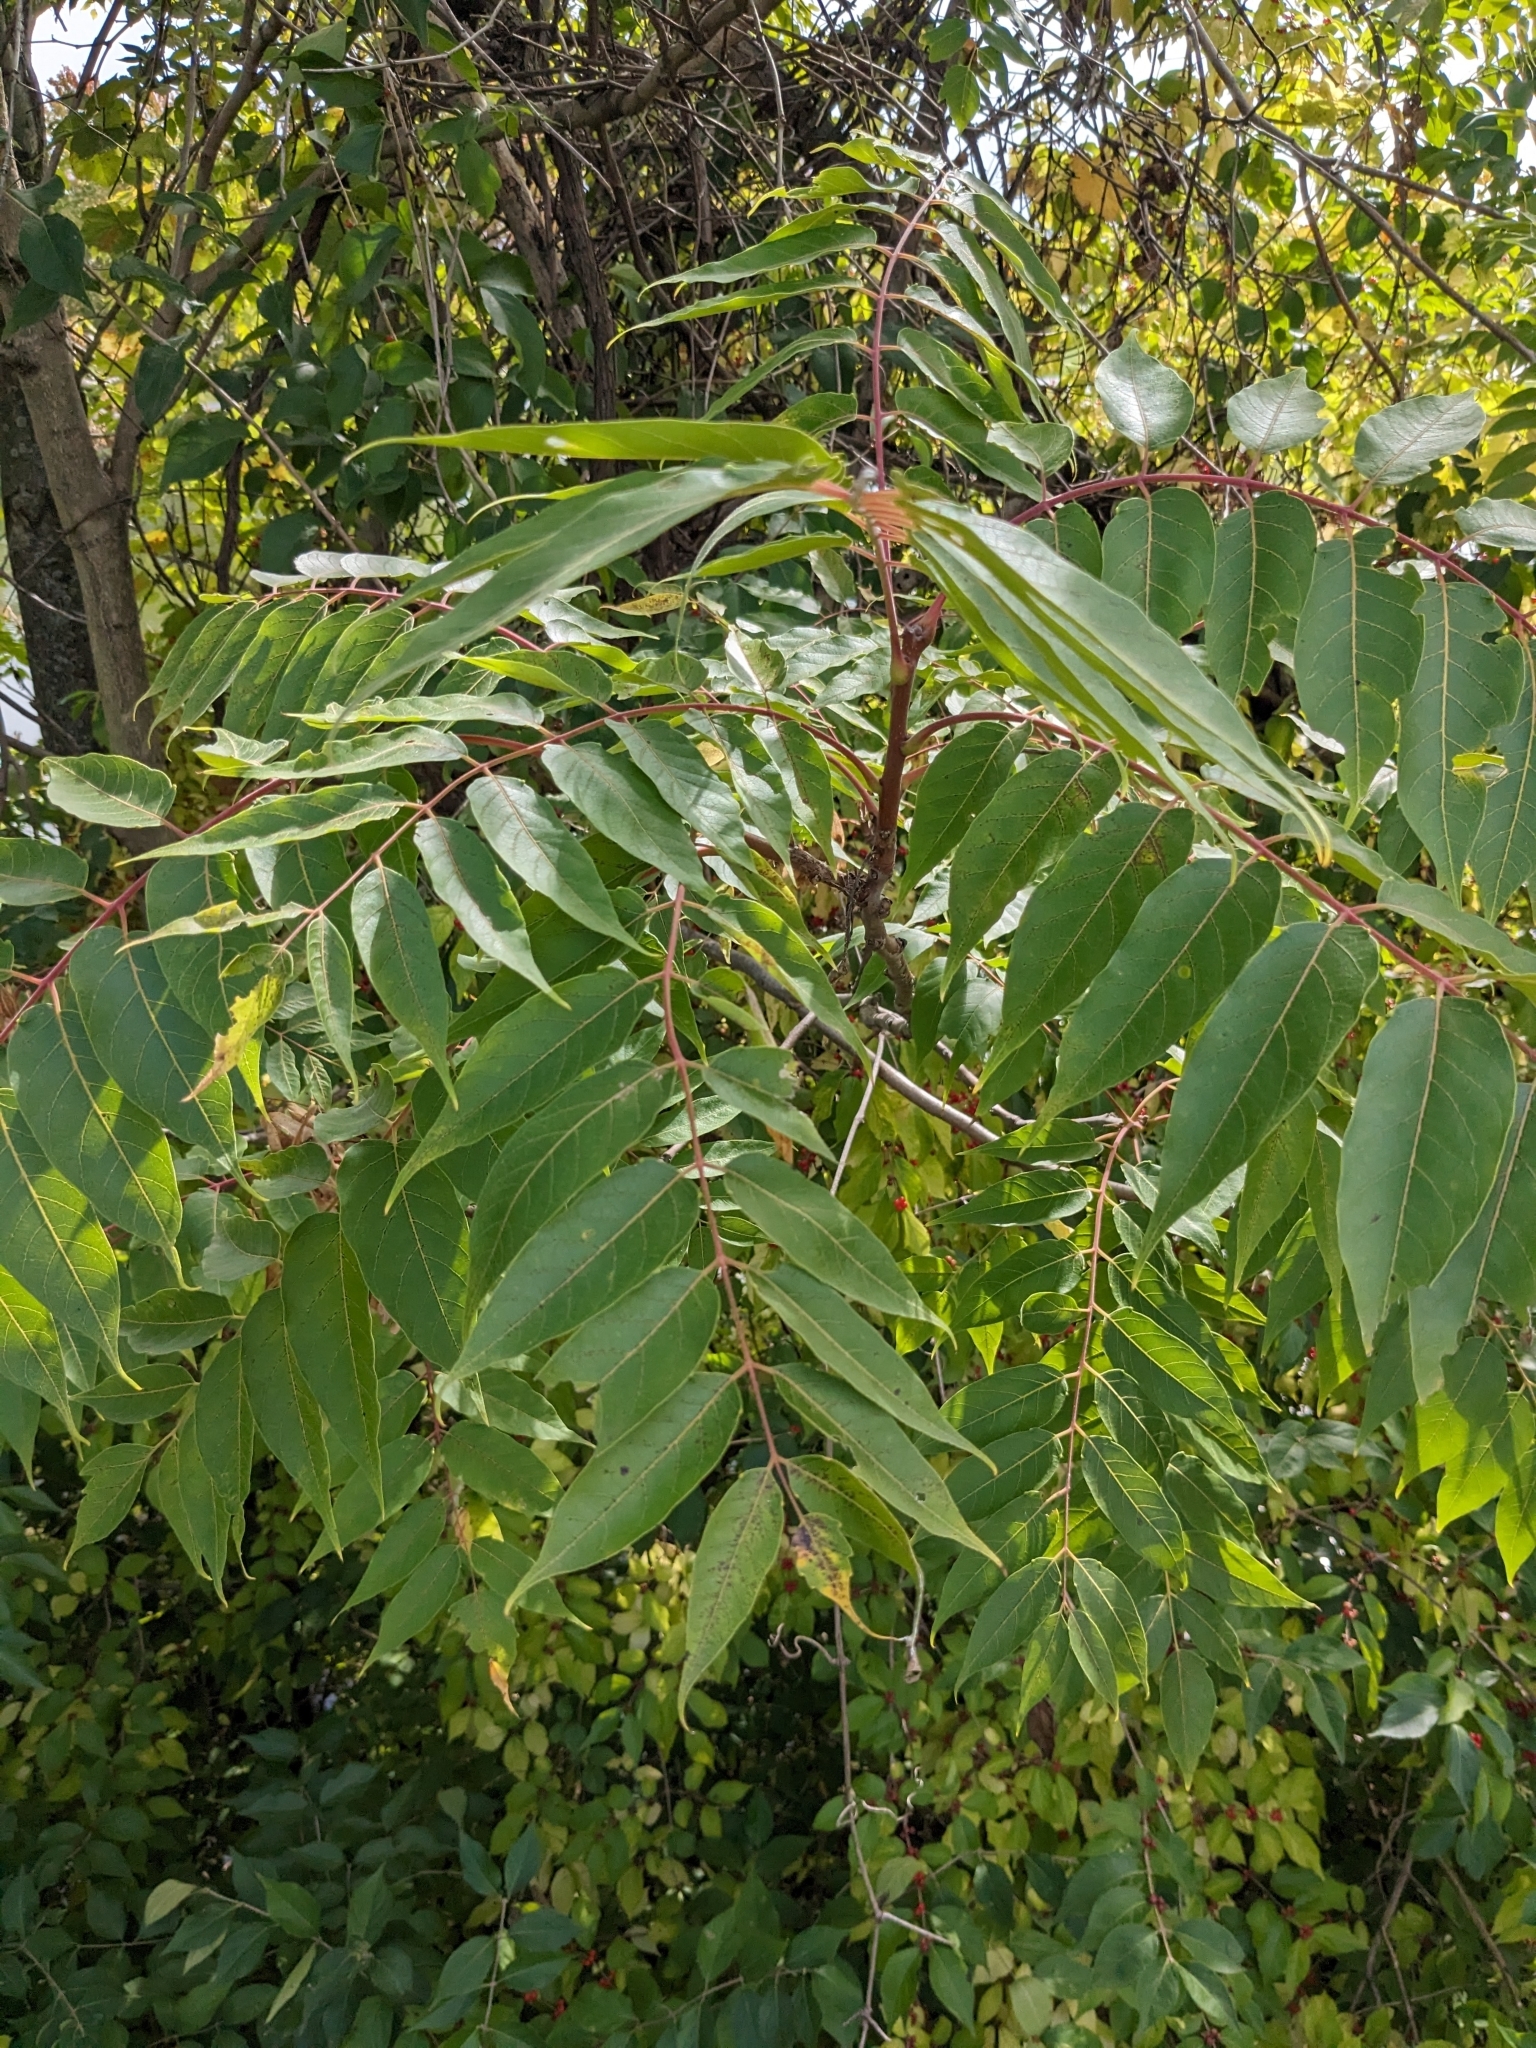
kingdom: Plantae
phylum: Tracheophyta
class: Magnoliopsida
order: Sapindales
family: Simaroubaceae
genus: Ailanthus
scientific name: Ailanthus altissima
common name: Tree-of-heaven
